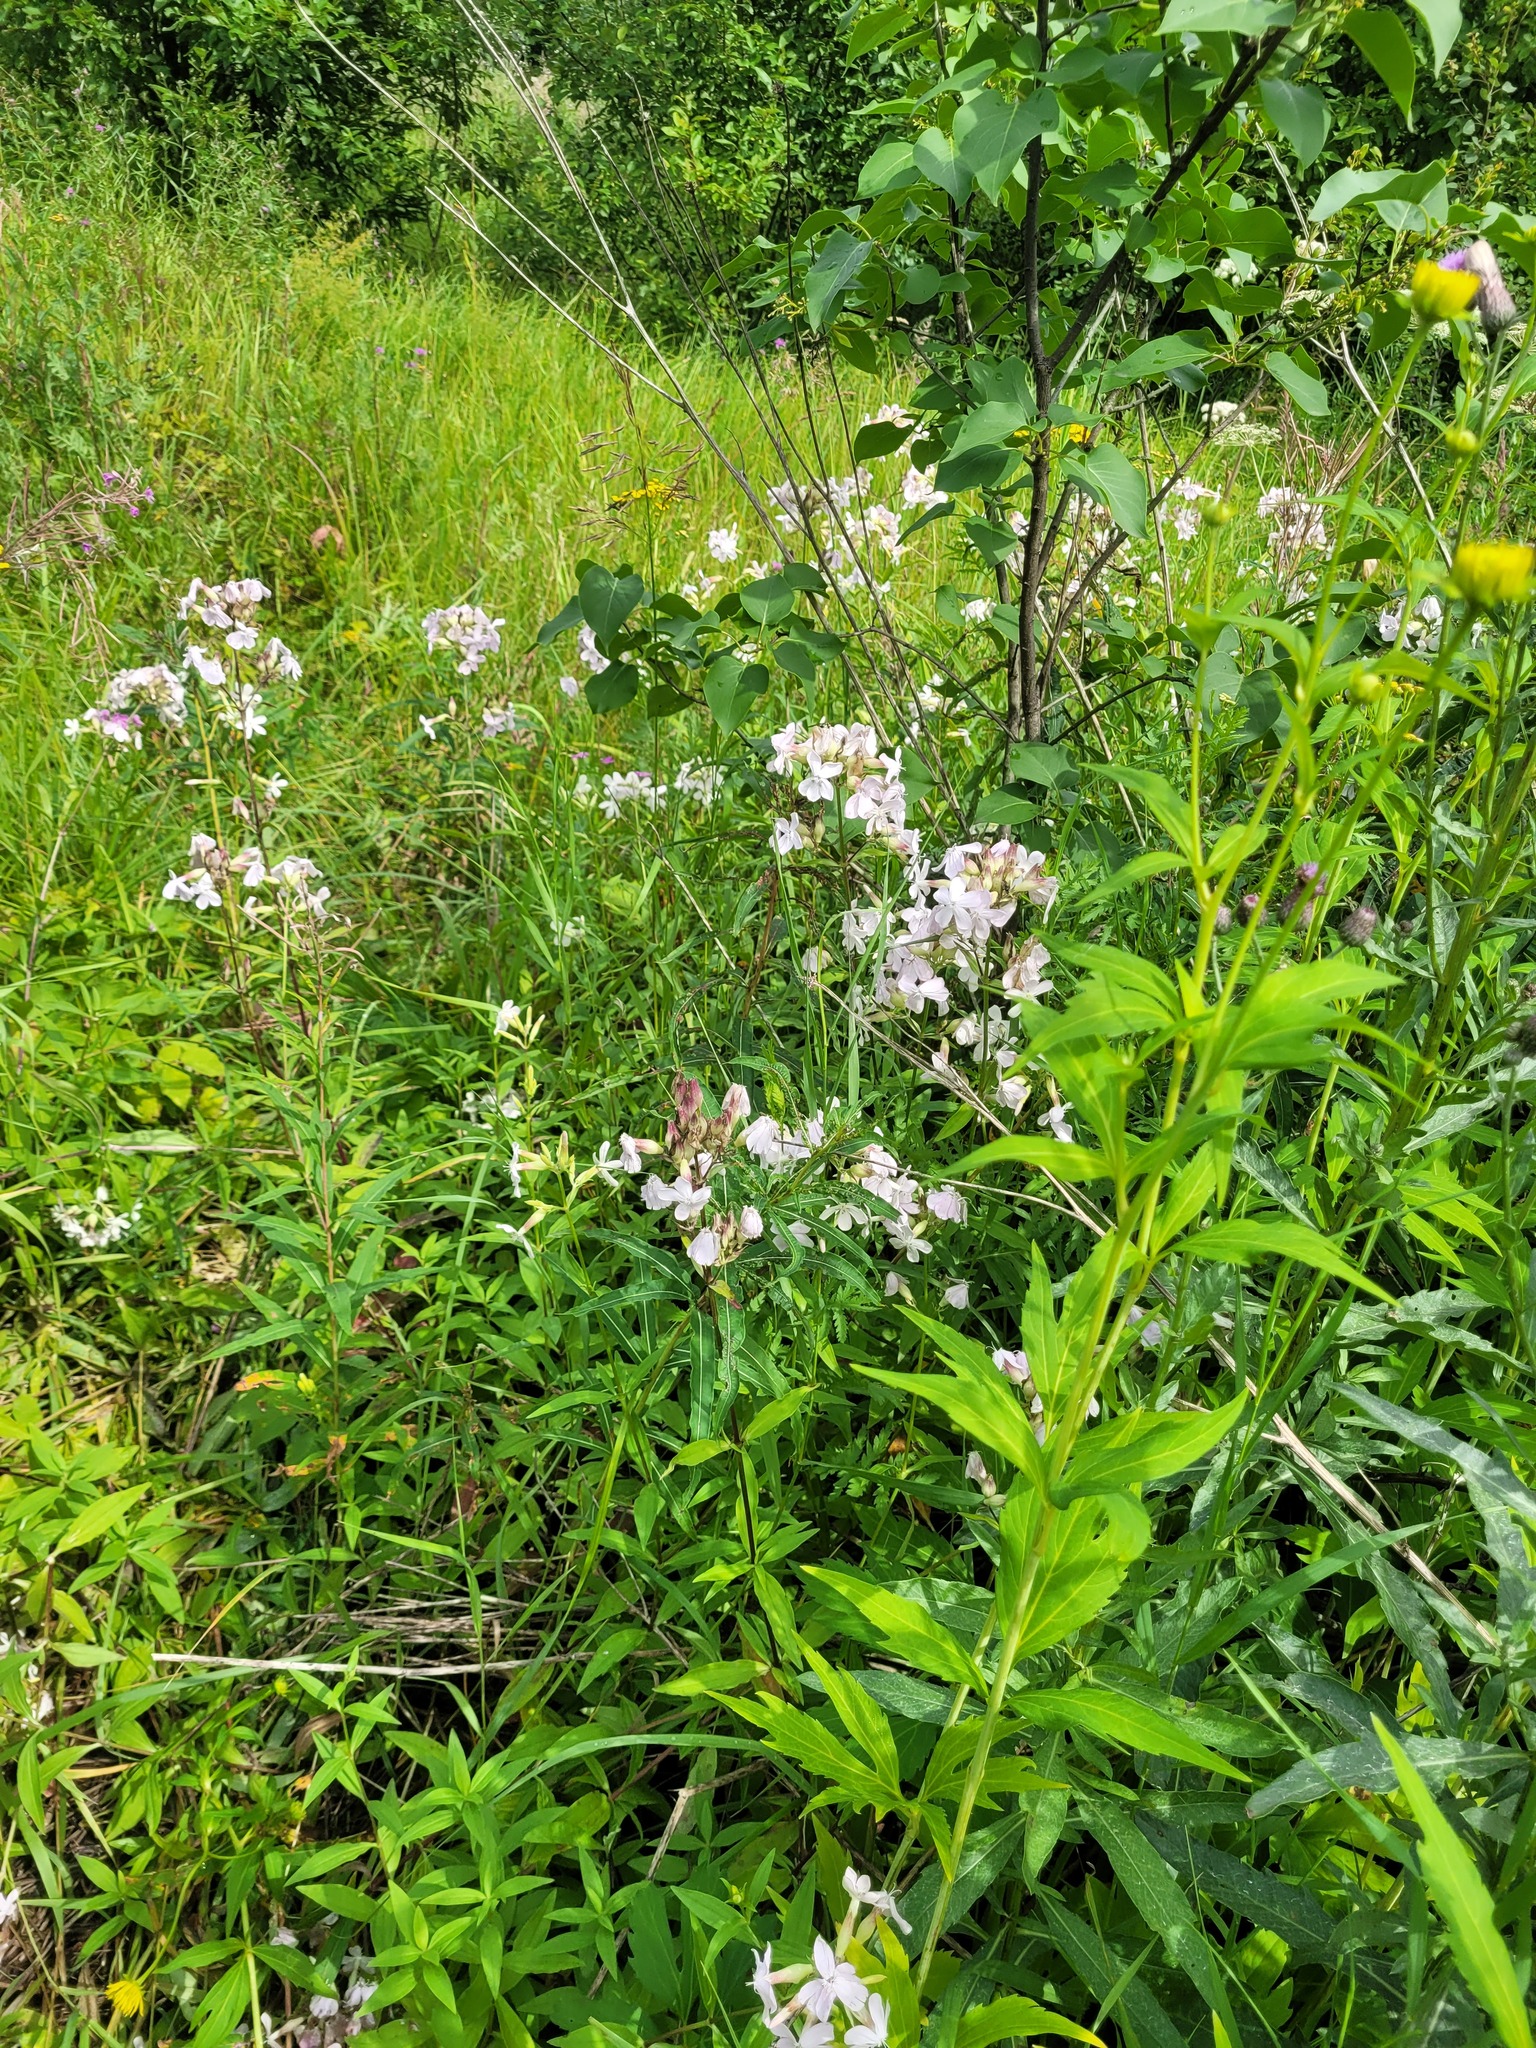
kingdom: Plantae
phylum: Tracheophyta
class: Magnoliopsida
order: Caryophyllales
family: Caryophyllaceae
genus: Saponaria
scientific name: Saponaria officinalis
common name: Soapwort
